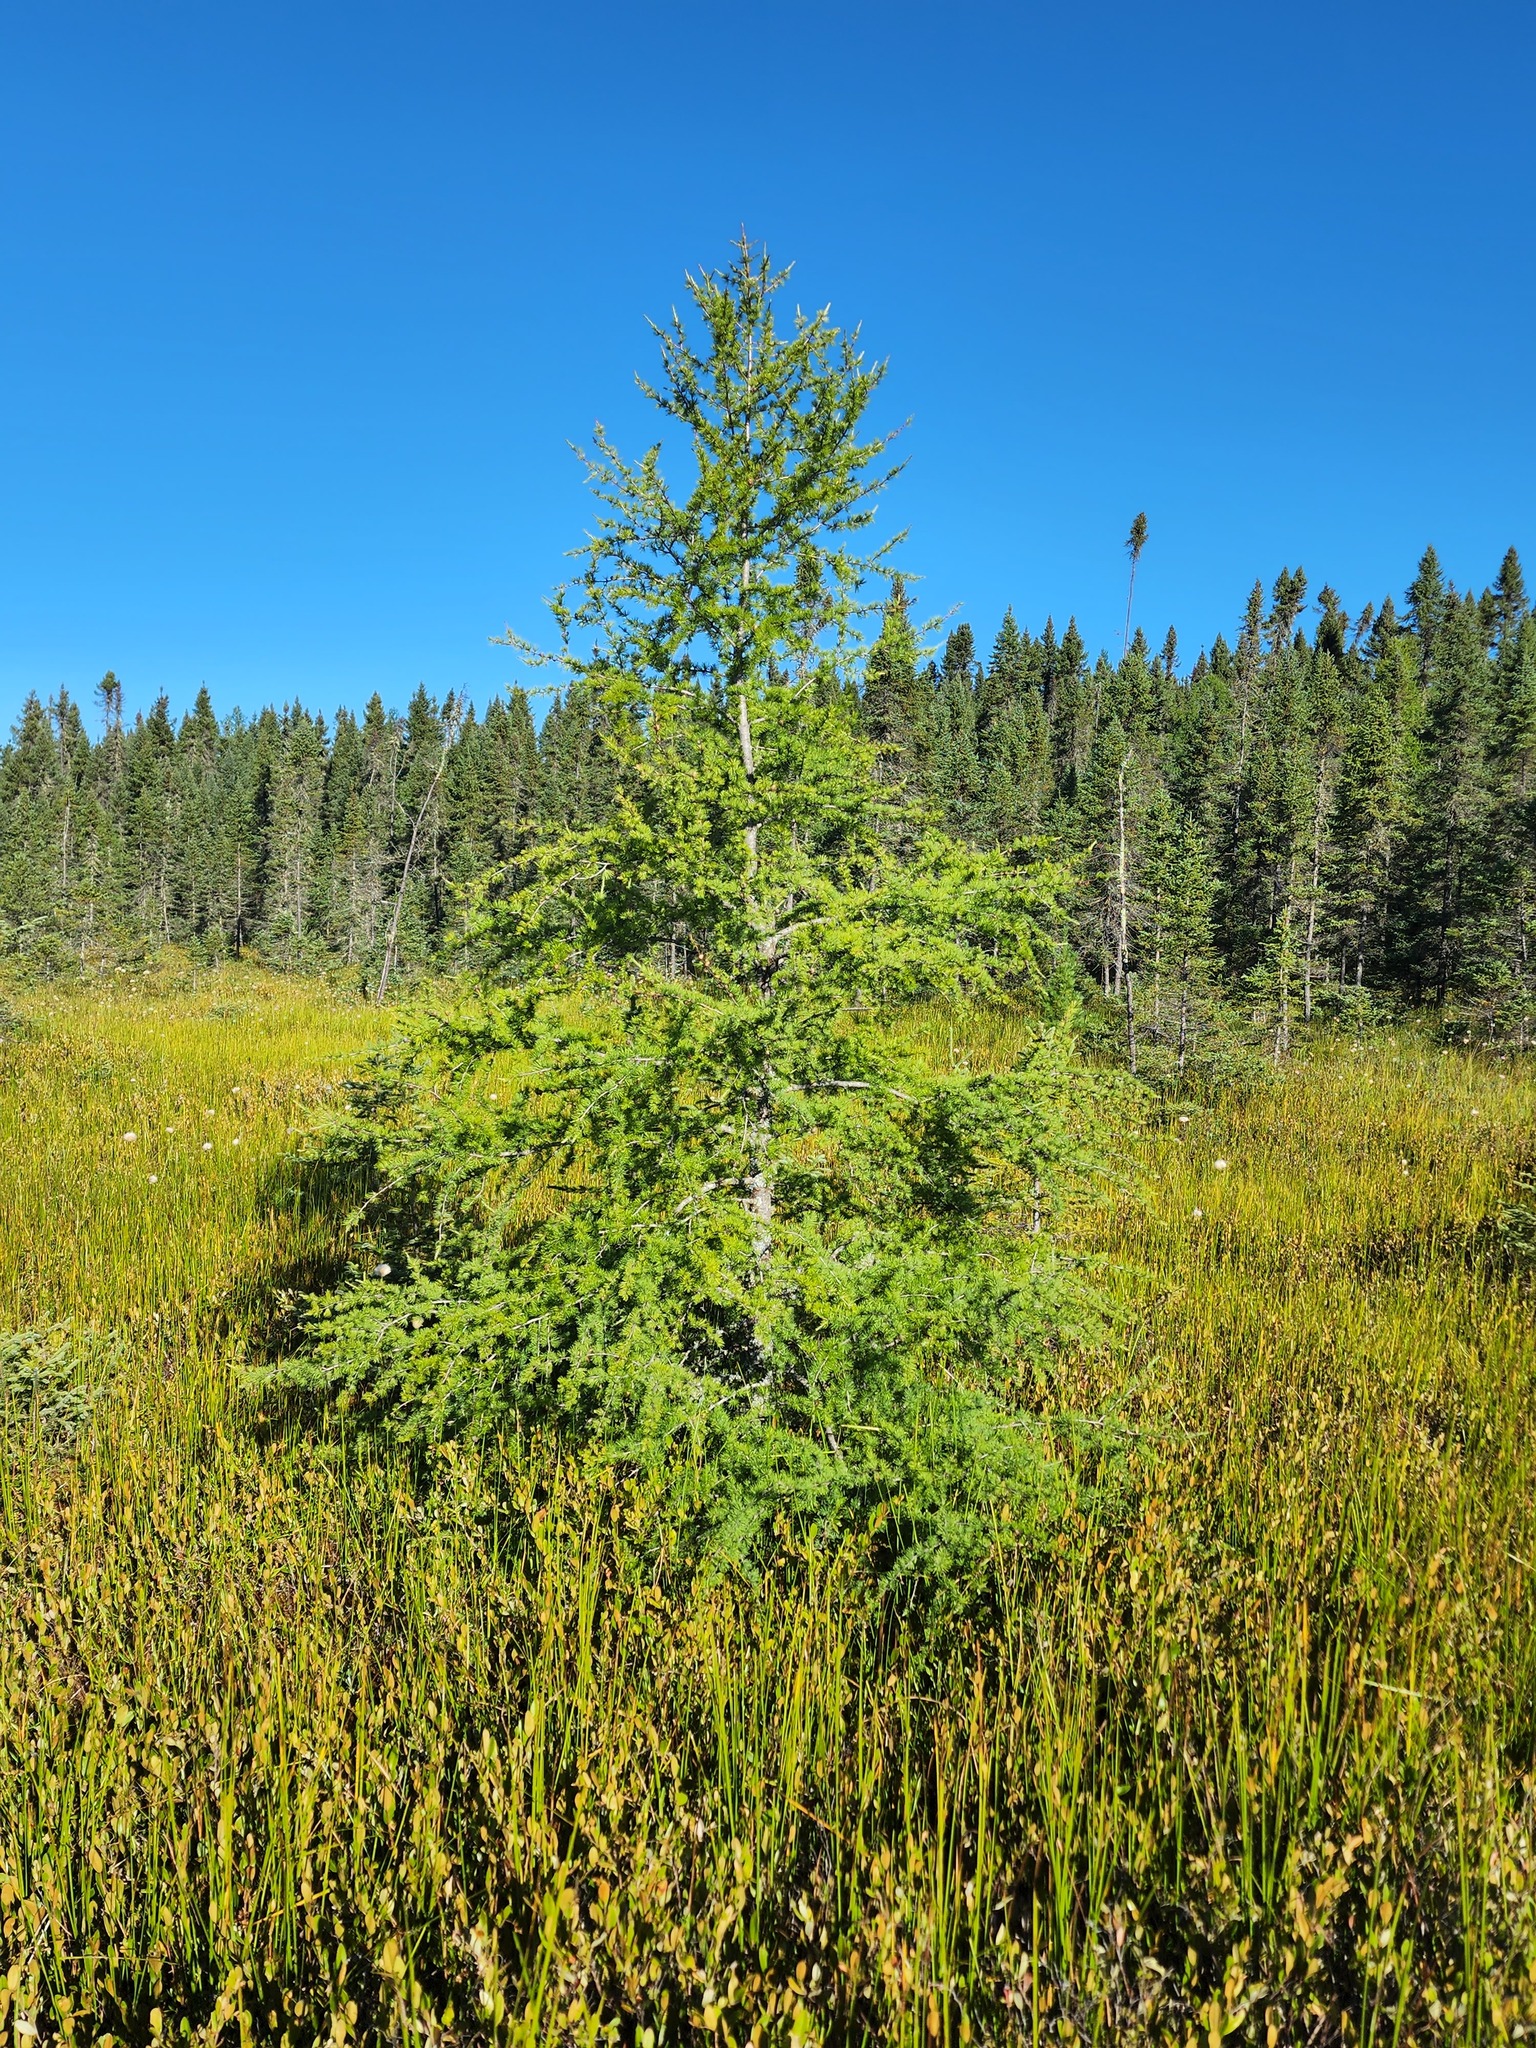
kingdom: Plantae
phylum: Tracheophyta
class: Pinopsida
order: Pinales
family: Pinaceae
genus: Larix
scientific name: Larix laricina
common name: American larch
